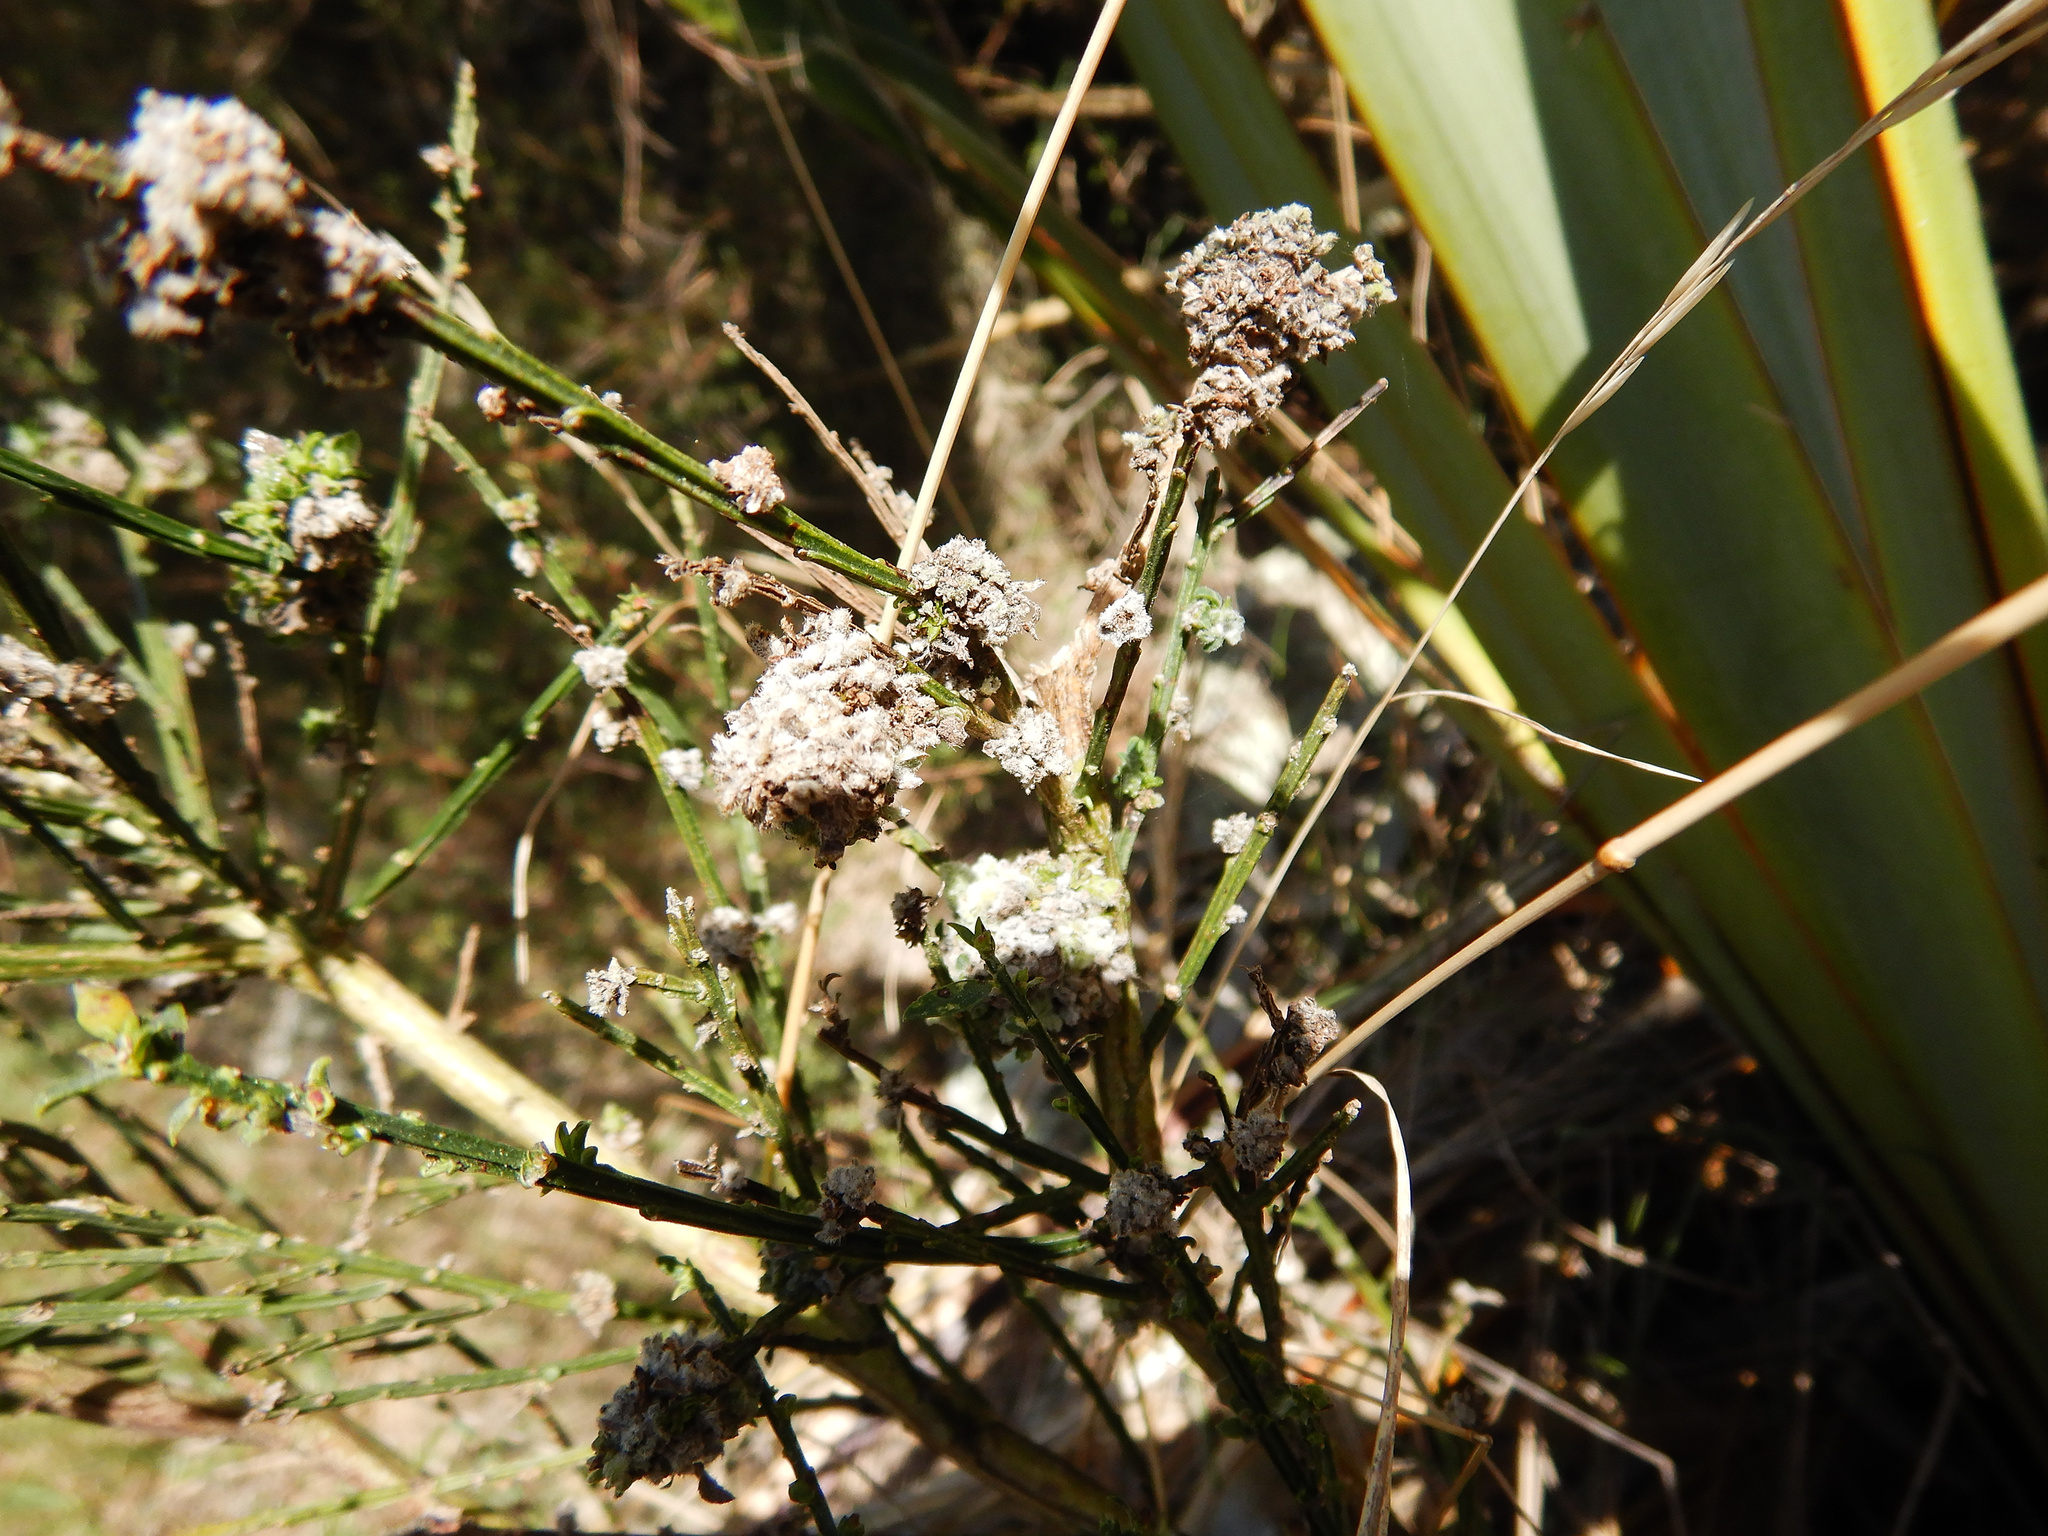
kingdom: Animalia
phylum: Arthropoda
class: Arachnida
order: Trombidiformes
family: Eriophyidae
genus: Aceria
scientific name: Aceria genistae
